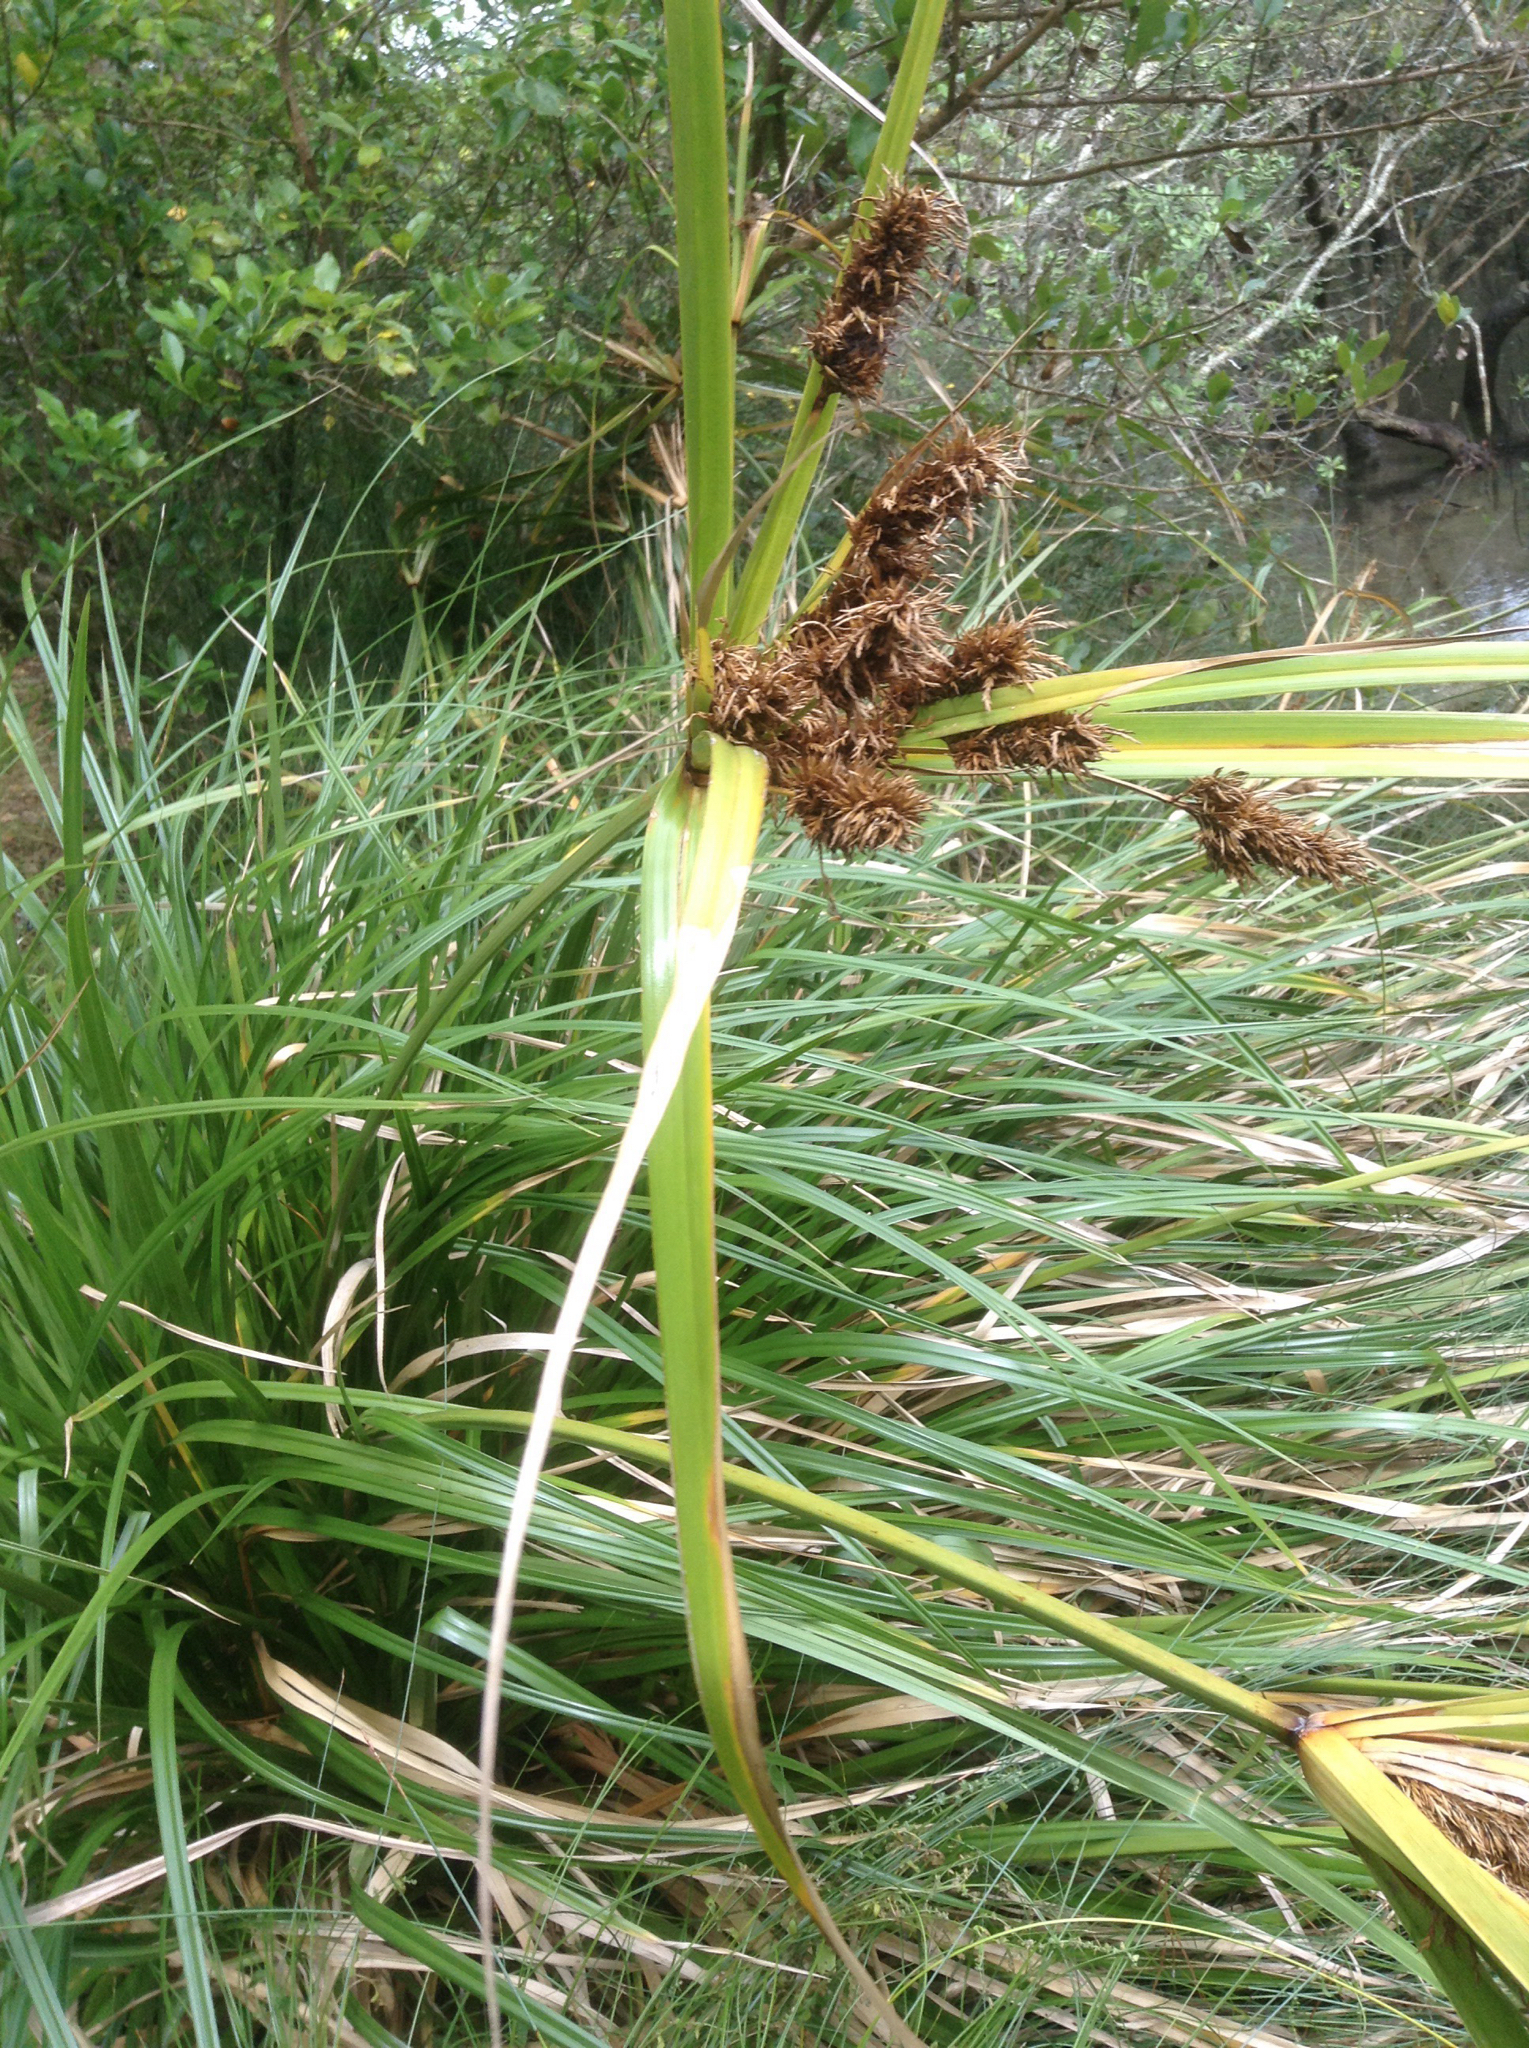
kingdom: Plantae
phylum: Tracheophyta
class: Liliopsida
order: Poales
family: Cyperaceae
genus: Cyperus
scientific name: Cyperus ustulatus
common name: Giant umbrella-sedge
